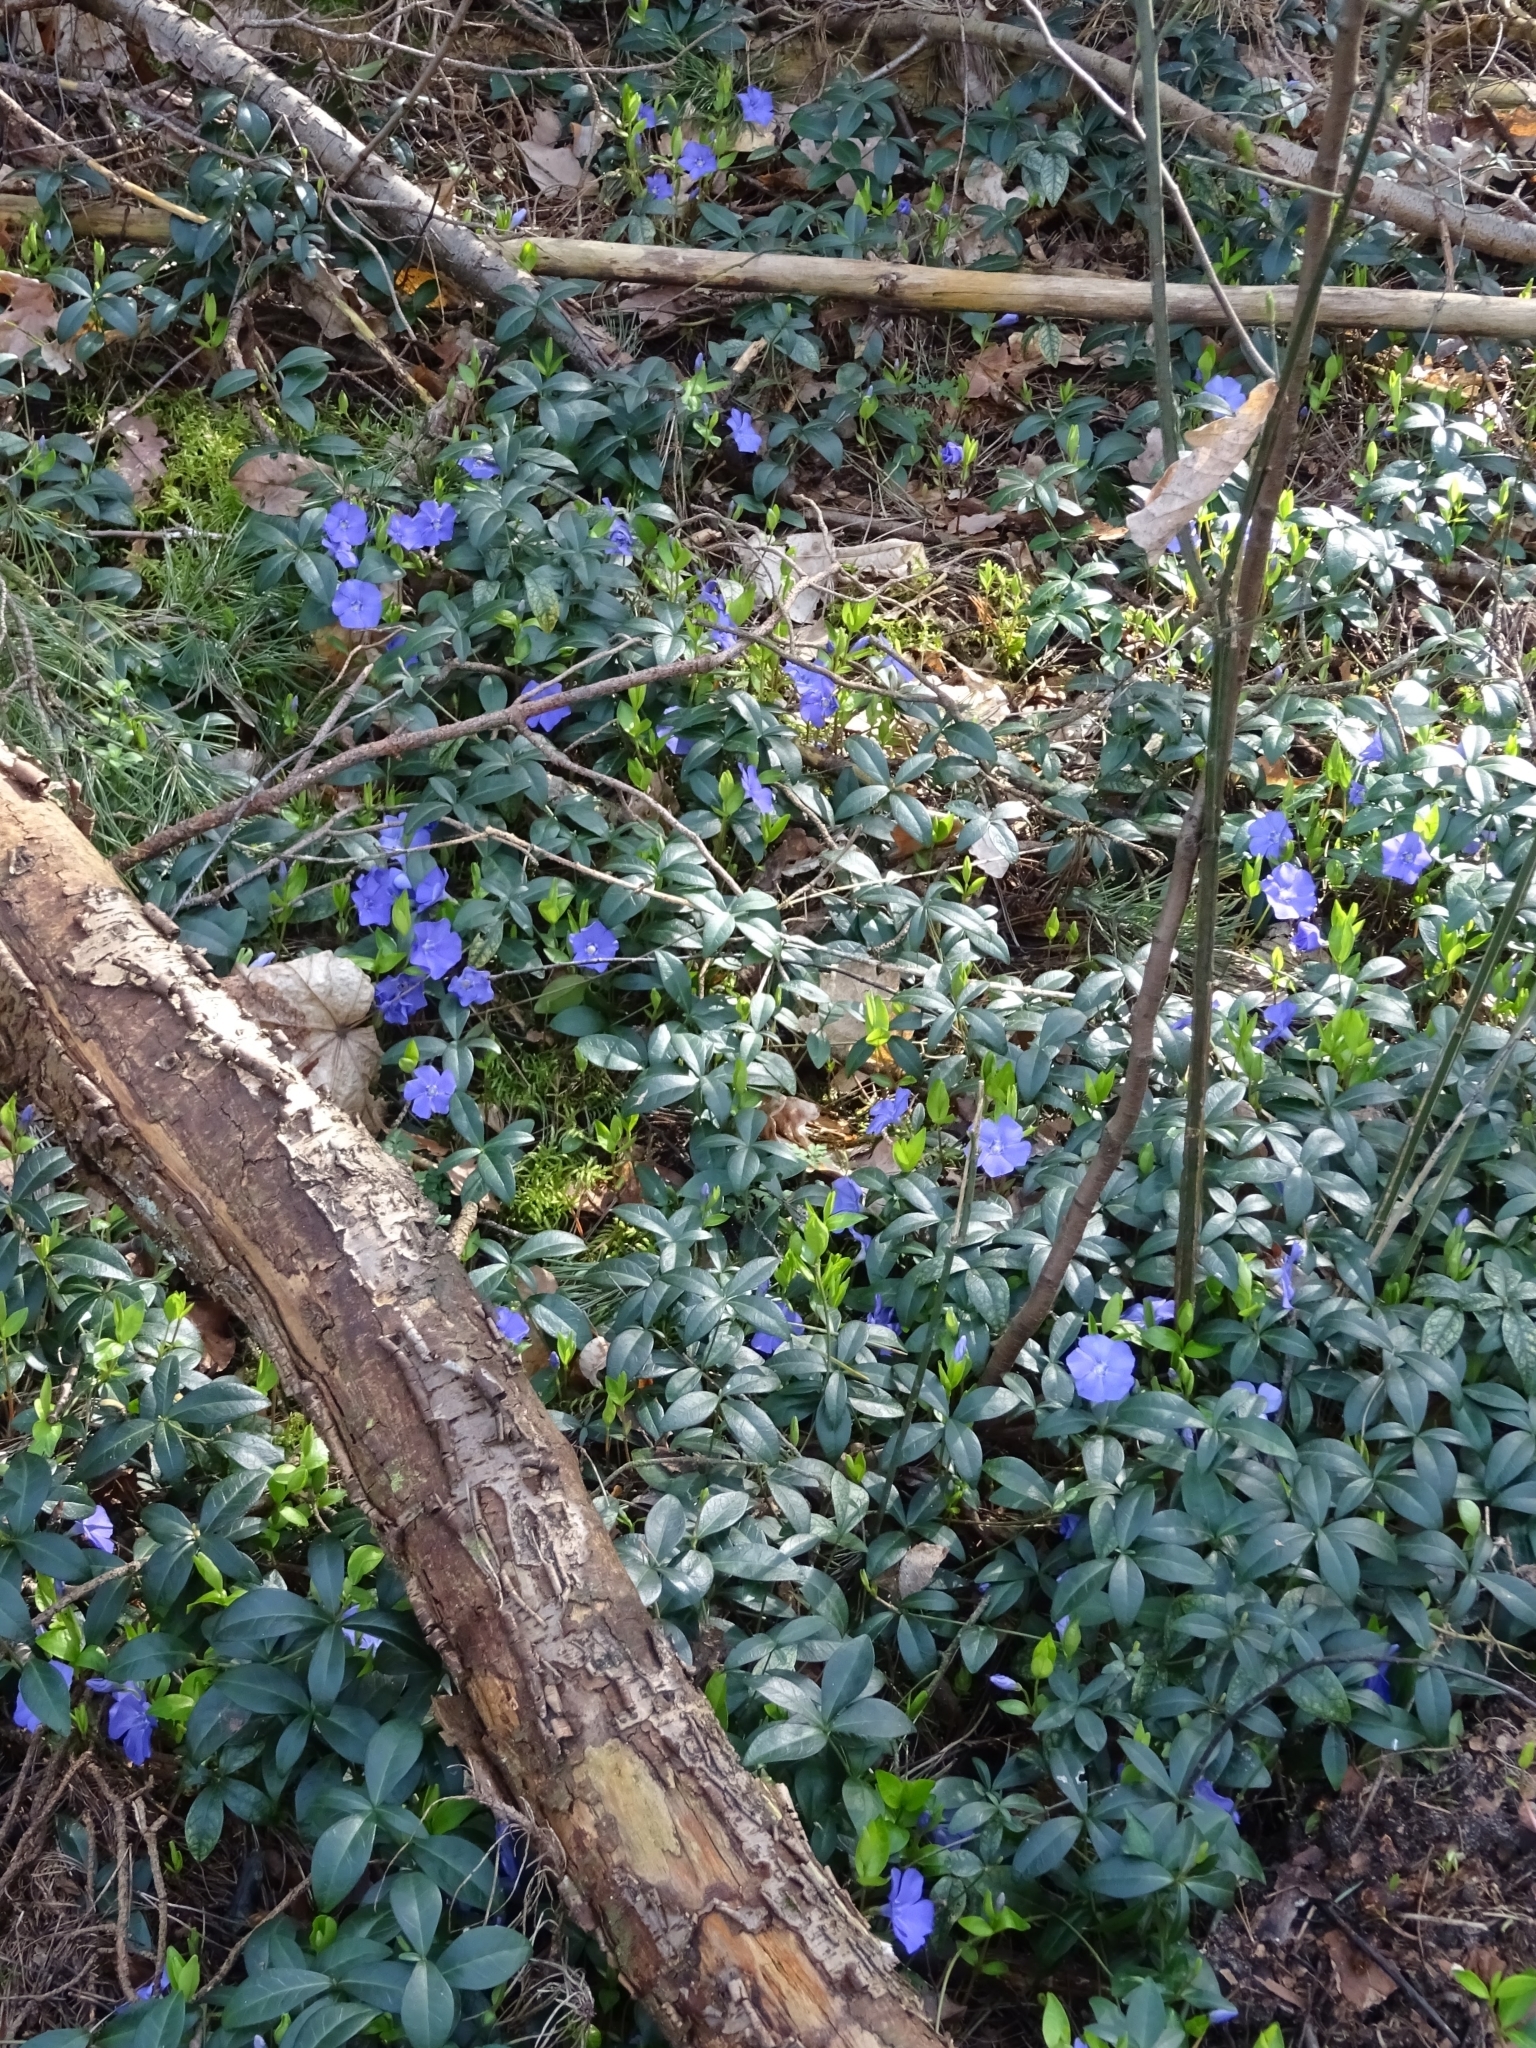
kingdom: Plantae
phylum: Tracheophyta
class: Magnoliopsida
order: Gentianales
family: Apocynaceae
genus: Vinca
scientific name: Vinca minor
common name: Lesser periwinkle
